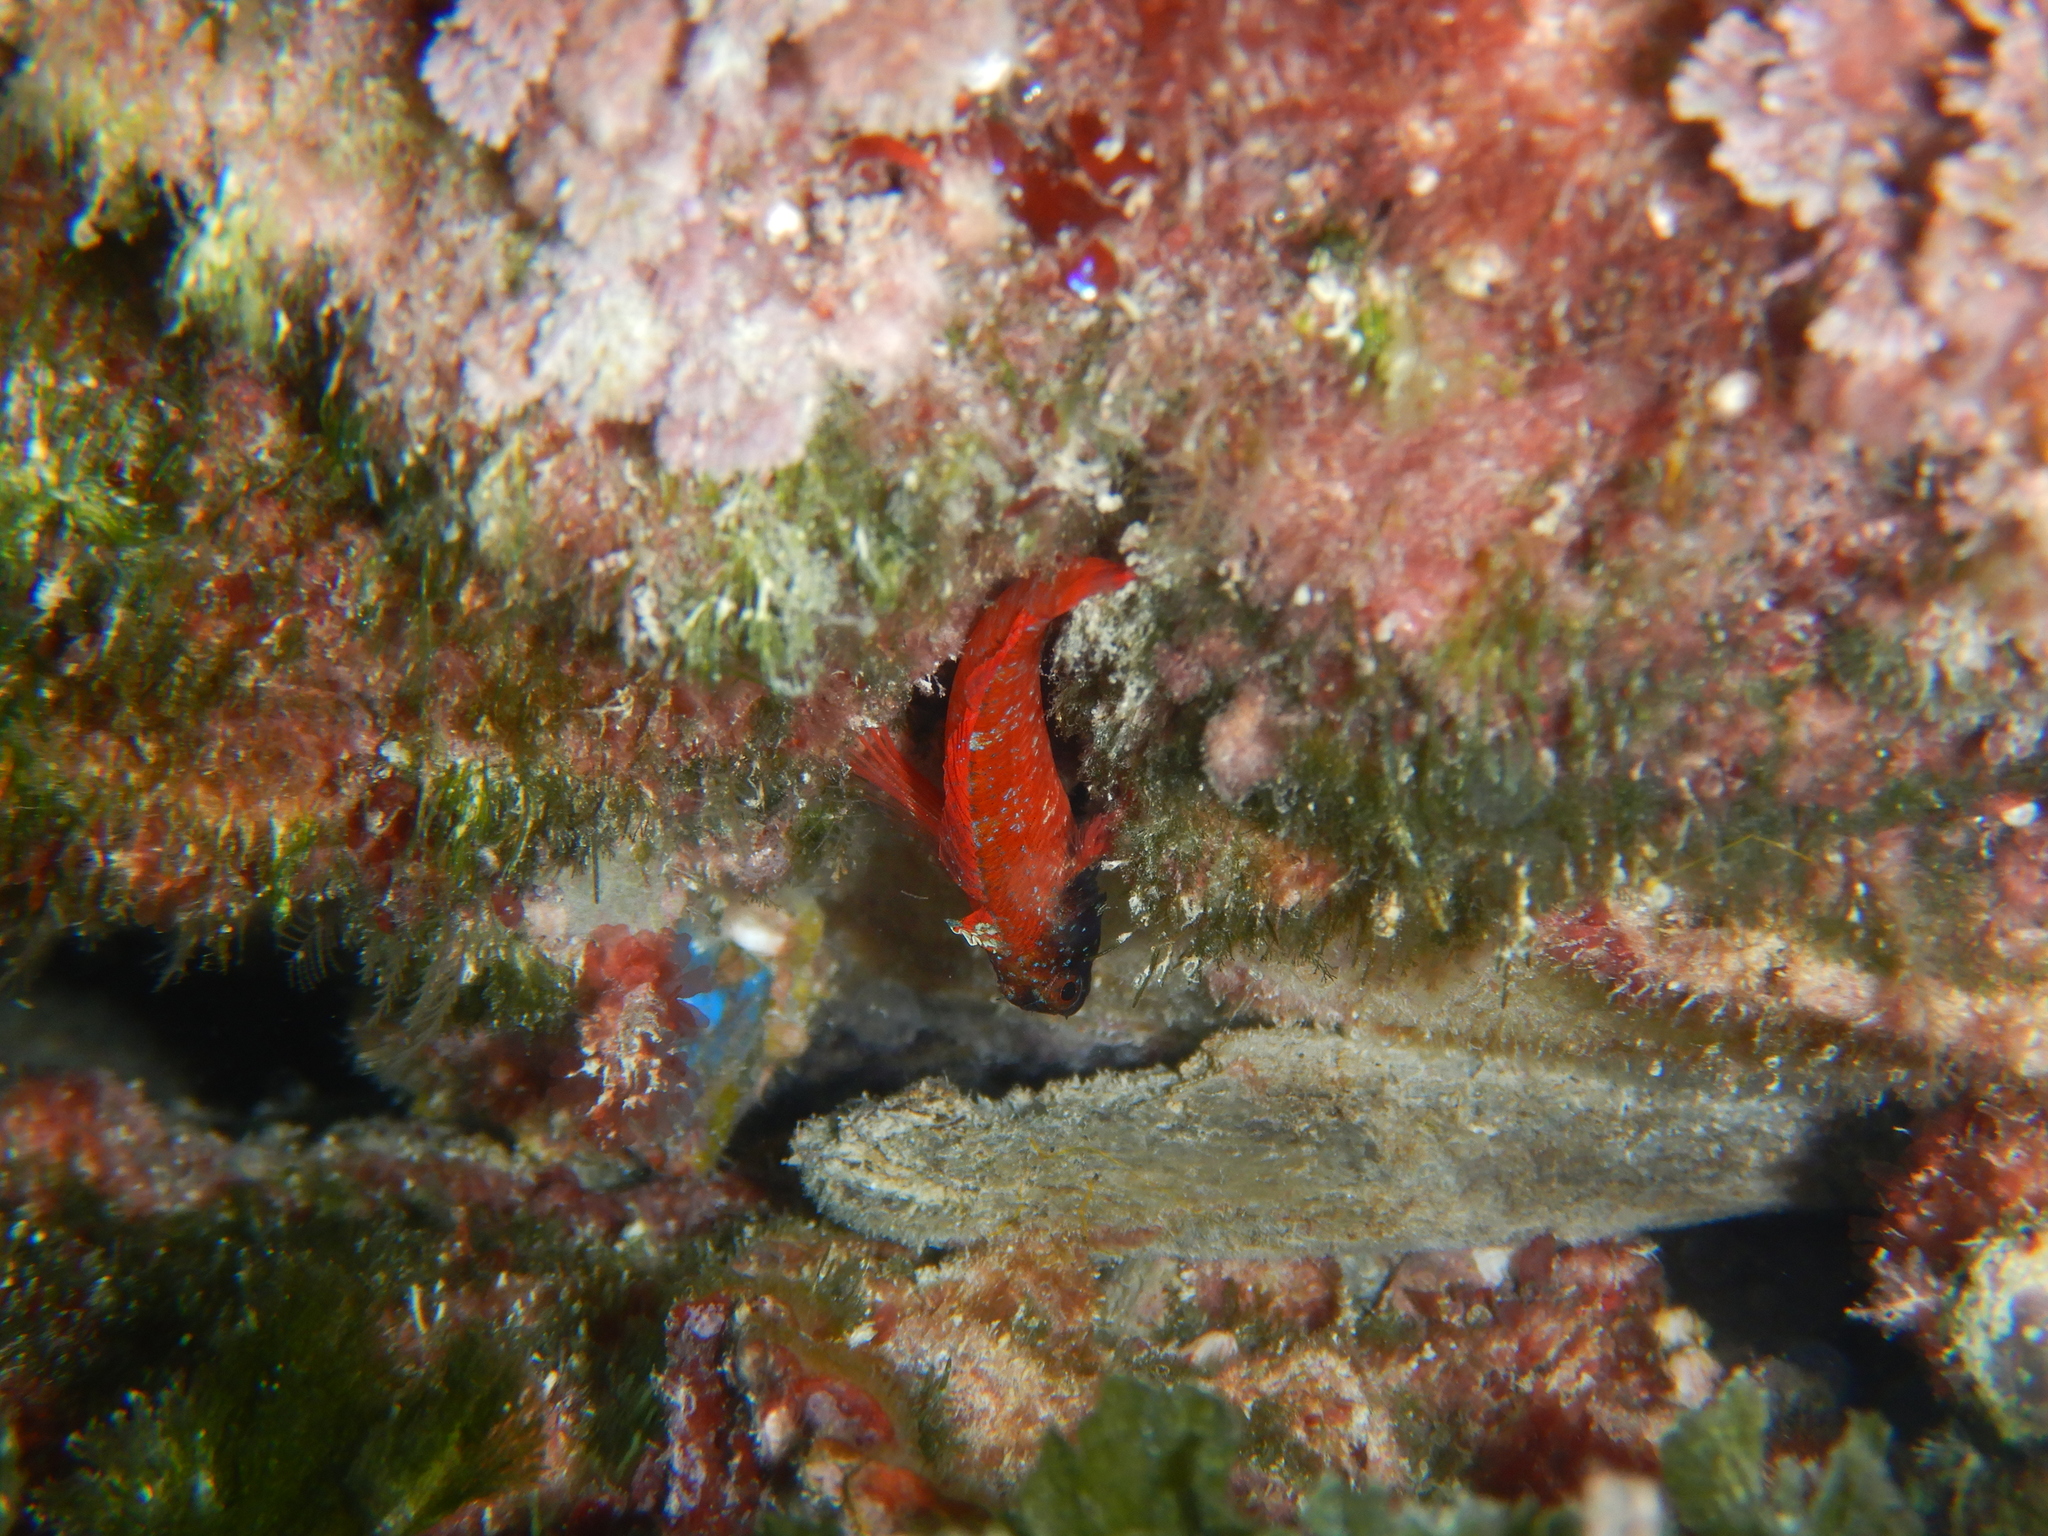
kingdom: Animalia
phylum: Chordata
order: Perciformes
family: Tripterygiidae
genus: Tripterygion
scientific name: Tripterygion tripteronotum
